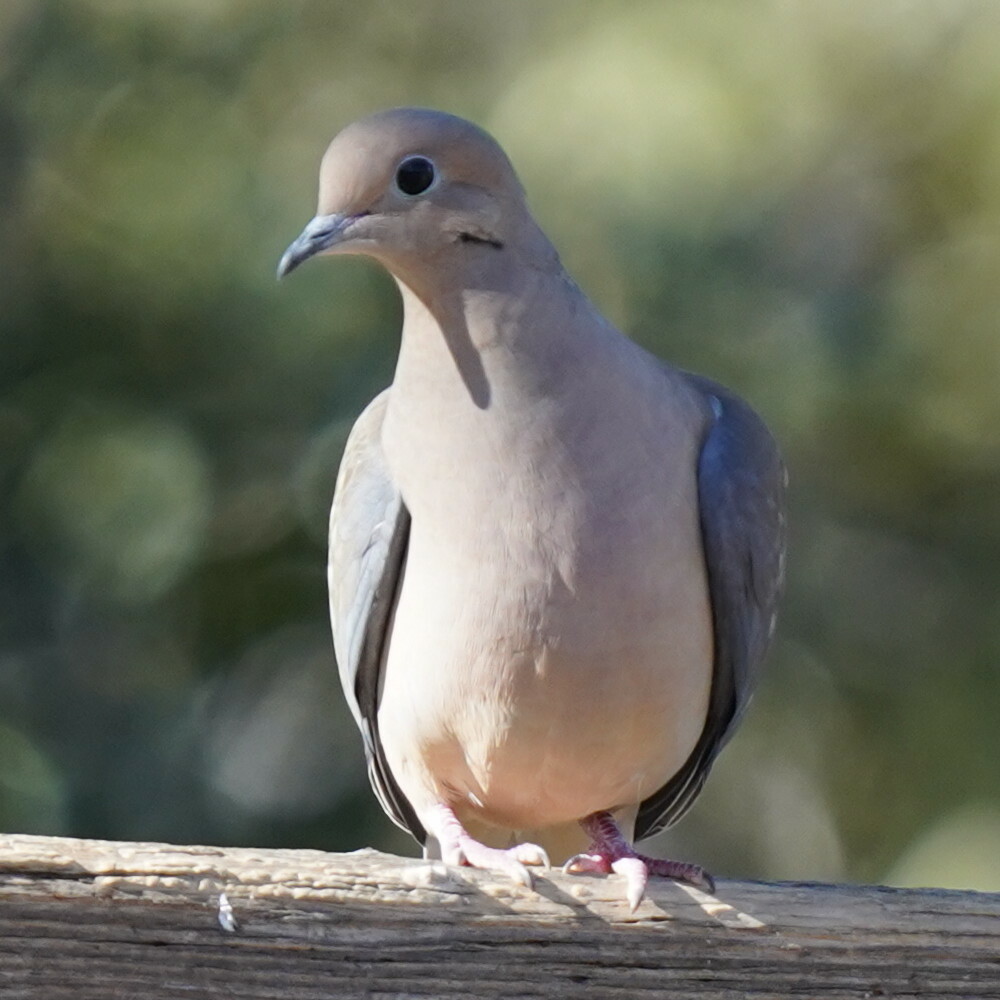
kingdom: Animalia
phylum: Chordata
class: Aves
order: Columbiformes
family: Columbidae
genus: Zenaida
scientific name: Zenaida macroura
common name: Mourning dove
